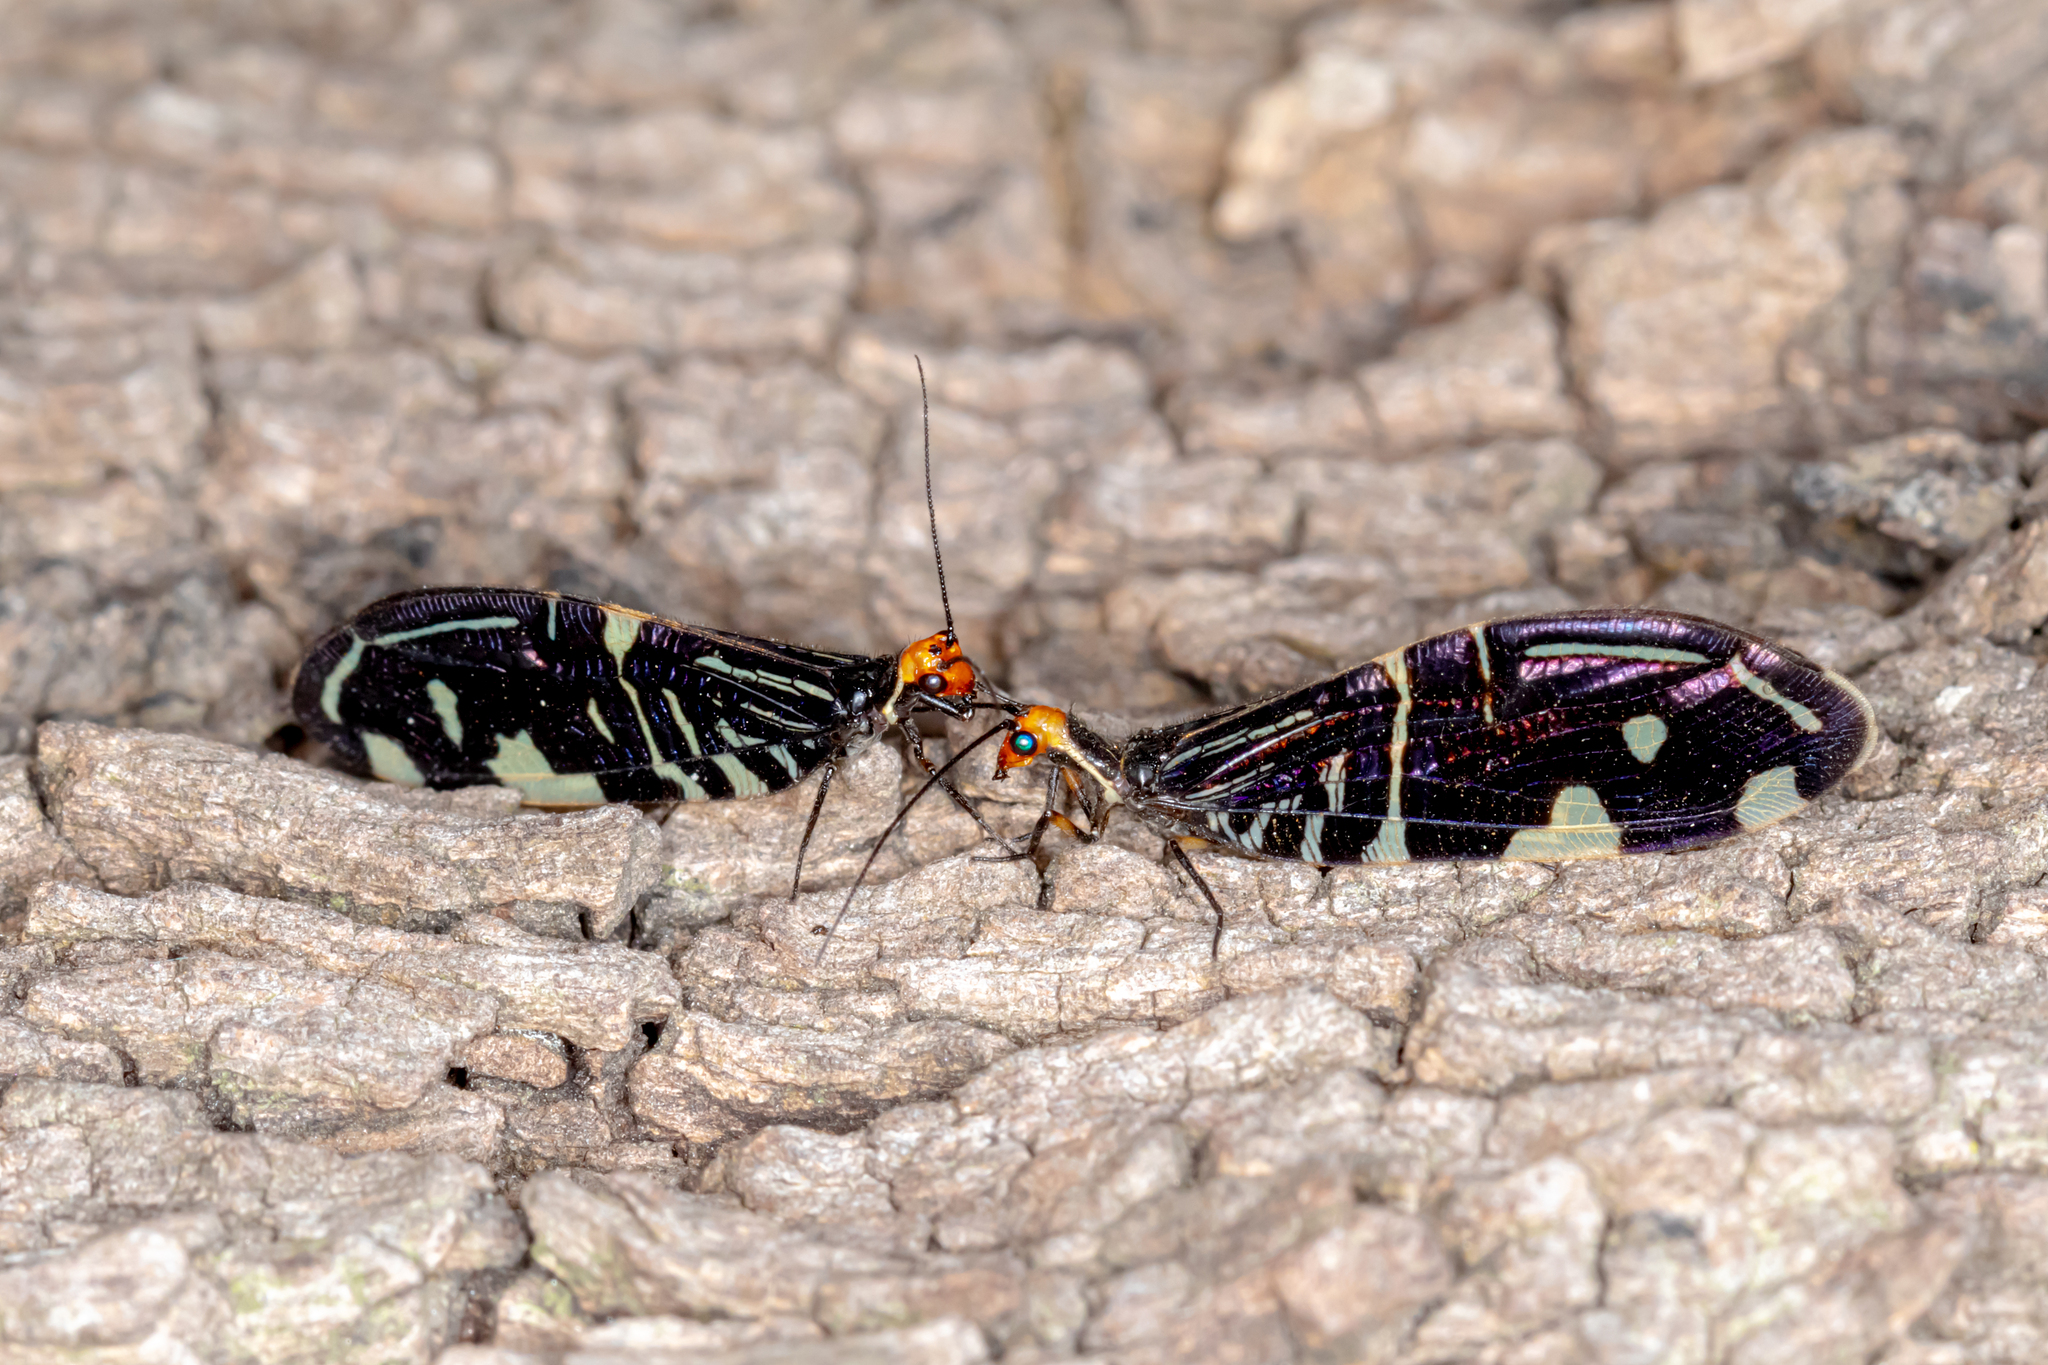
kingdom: Animalia
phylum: Arthropoda
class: Insecta
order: Neuroptera
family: Osmylidae
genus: Porismus
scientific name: Porismus strigatus
